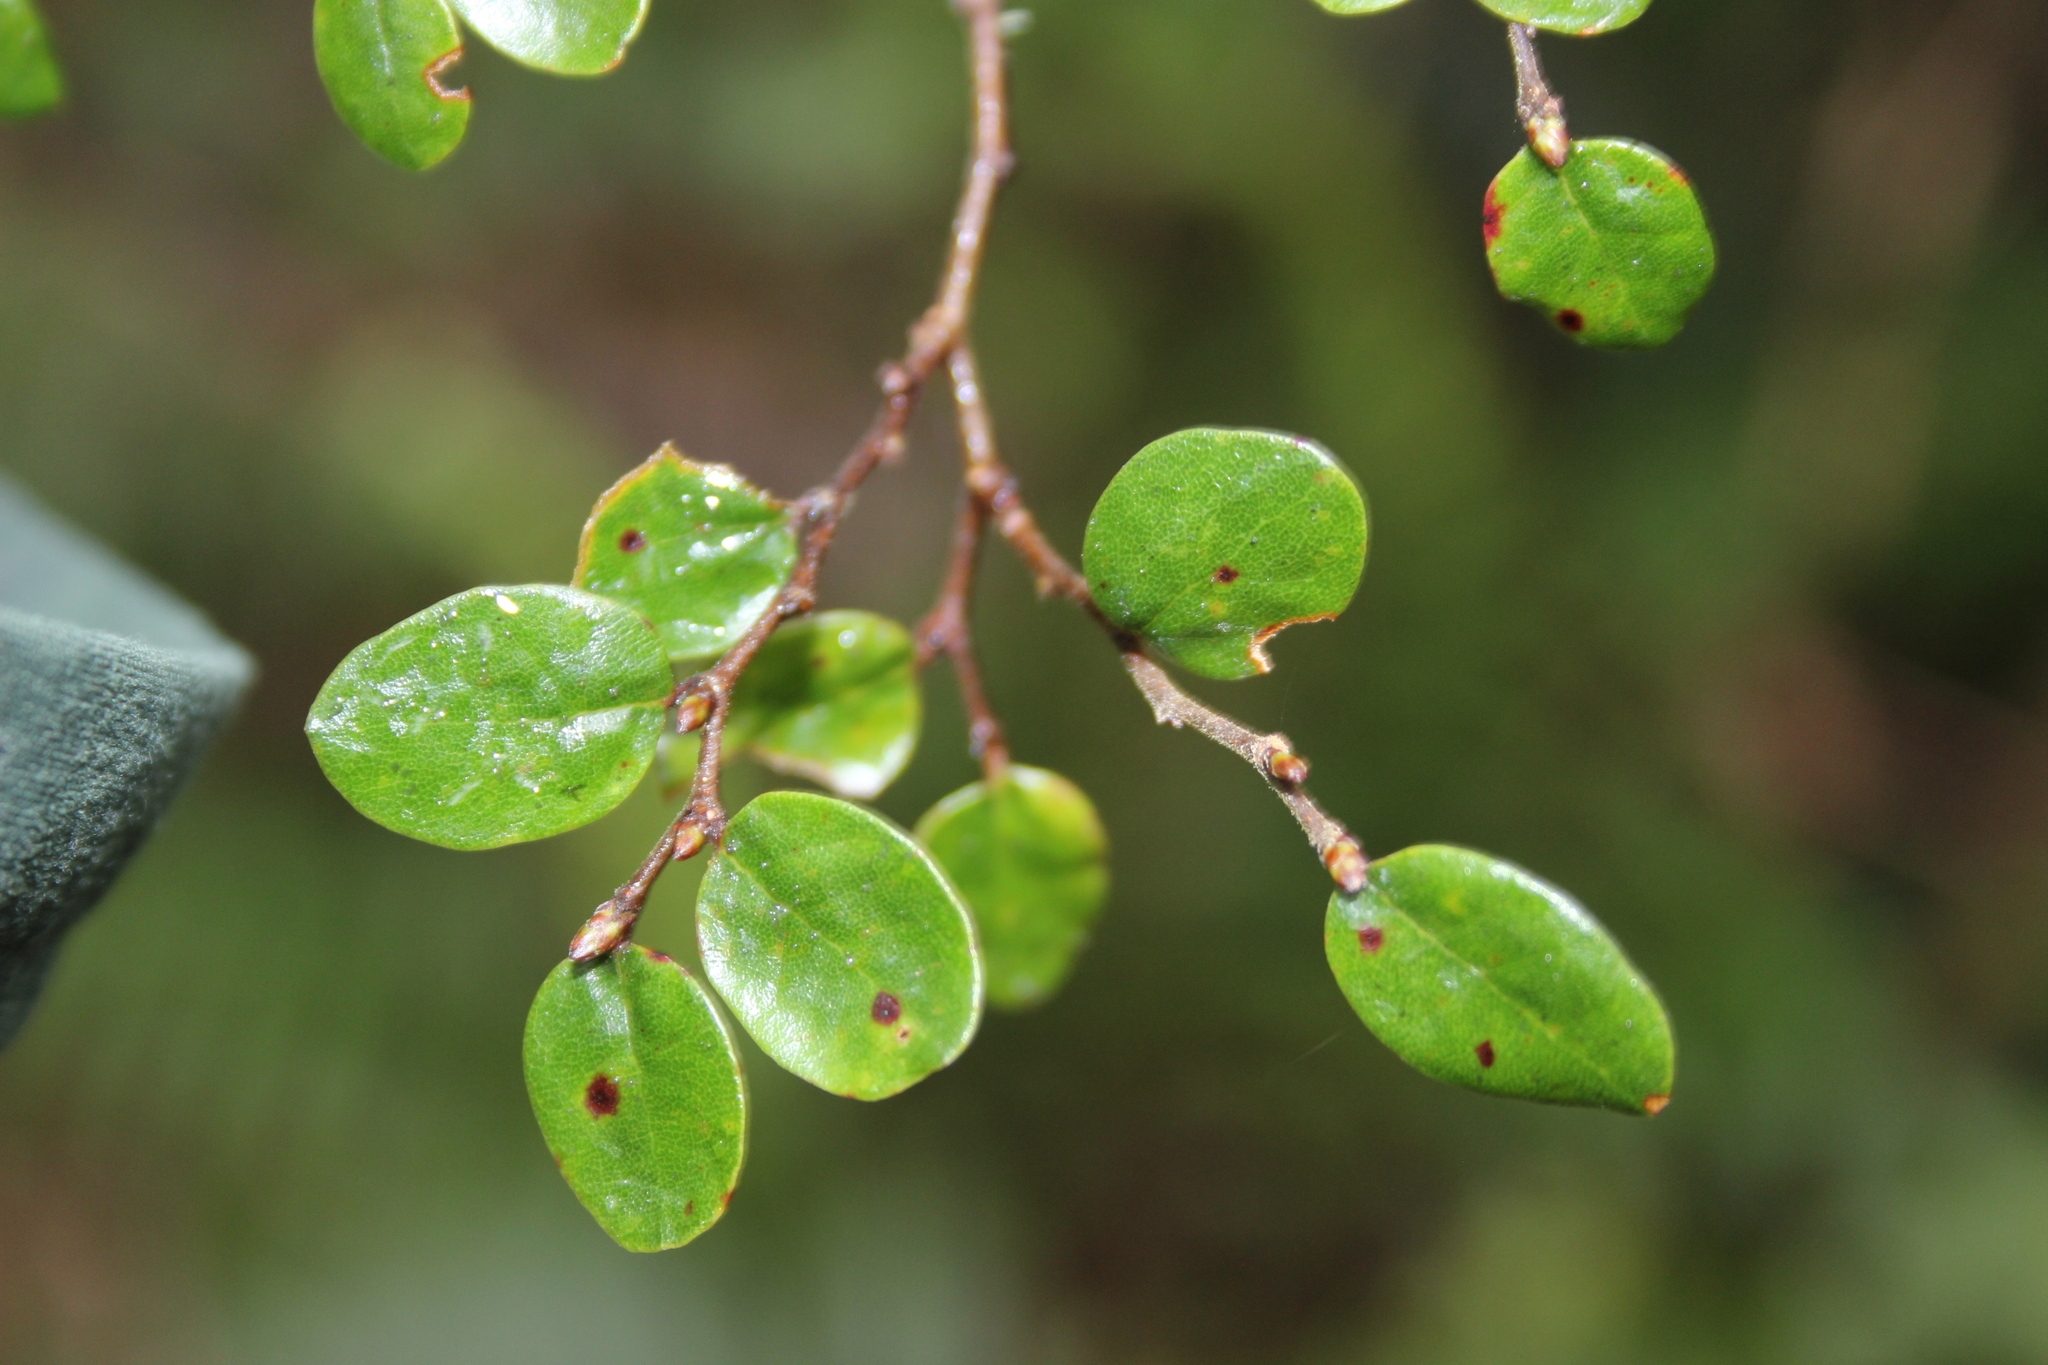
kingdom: Plantae
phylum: Tracheophyta
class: Magnoliopsida
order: Fagales
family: Nothofagaceae
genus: Nothofagus
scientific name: Nothofagus solandri
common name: Black beech
